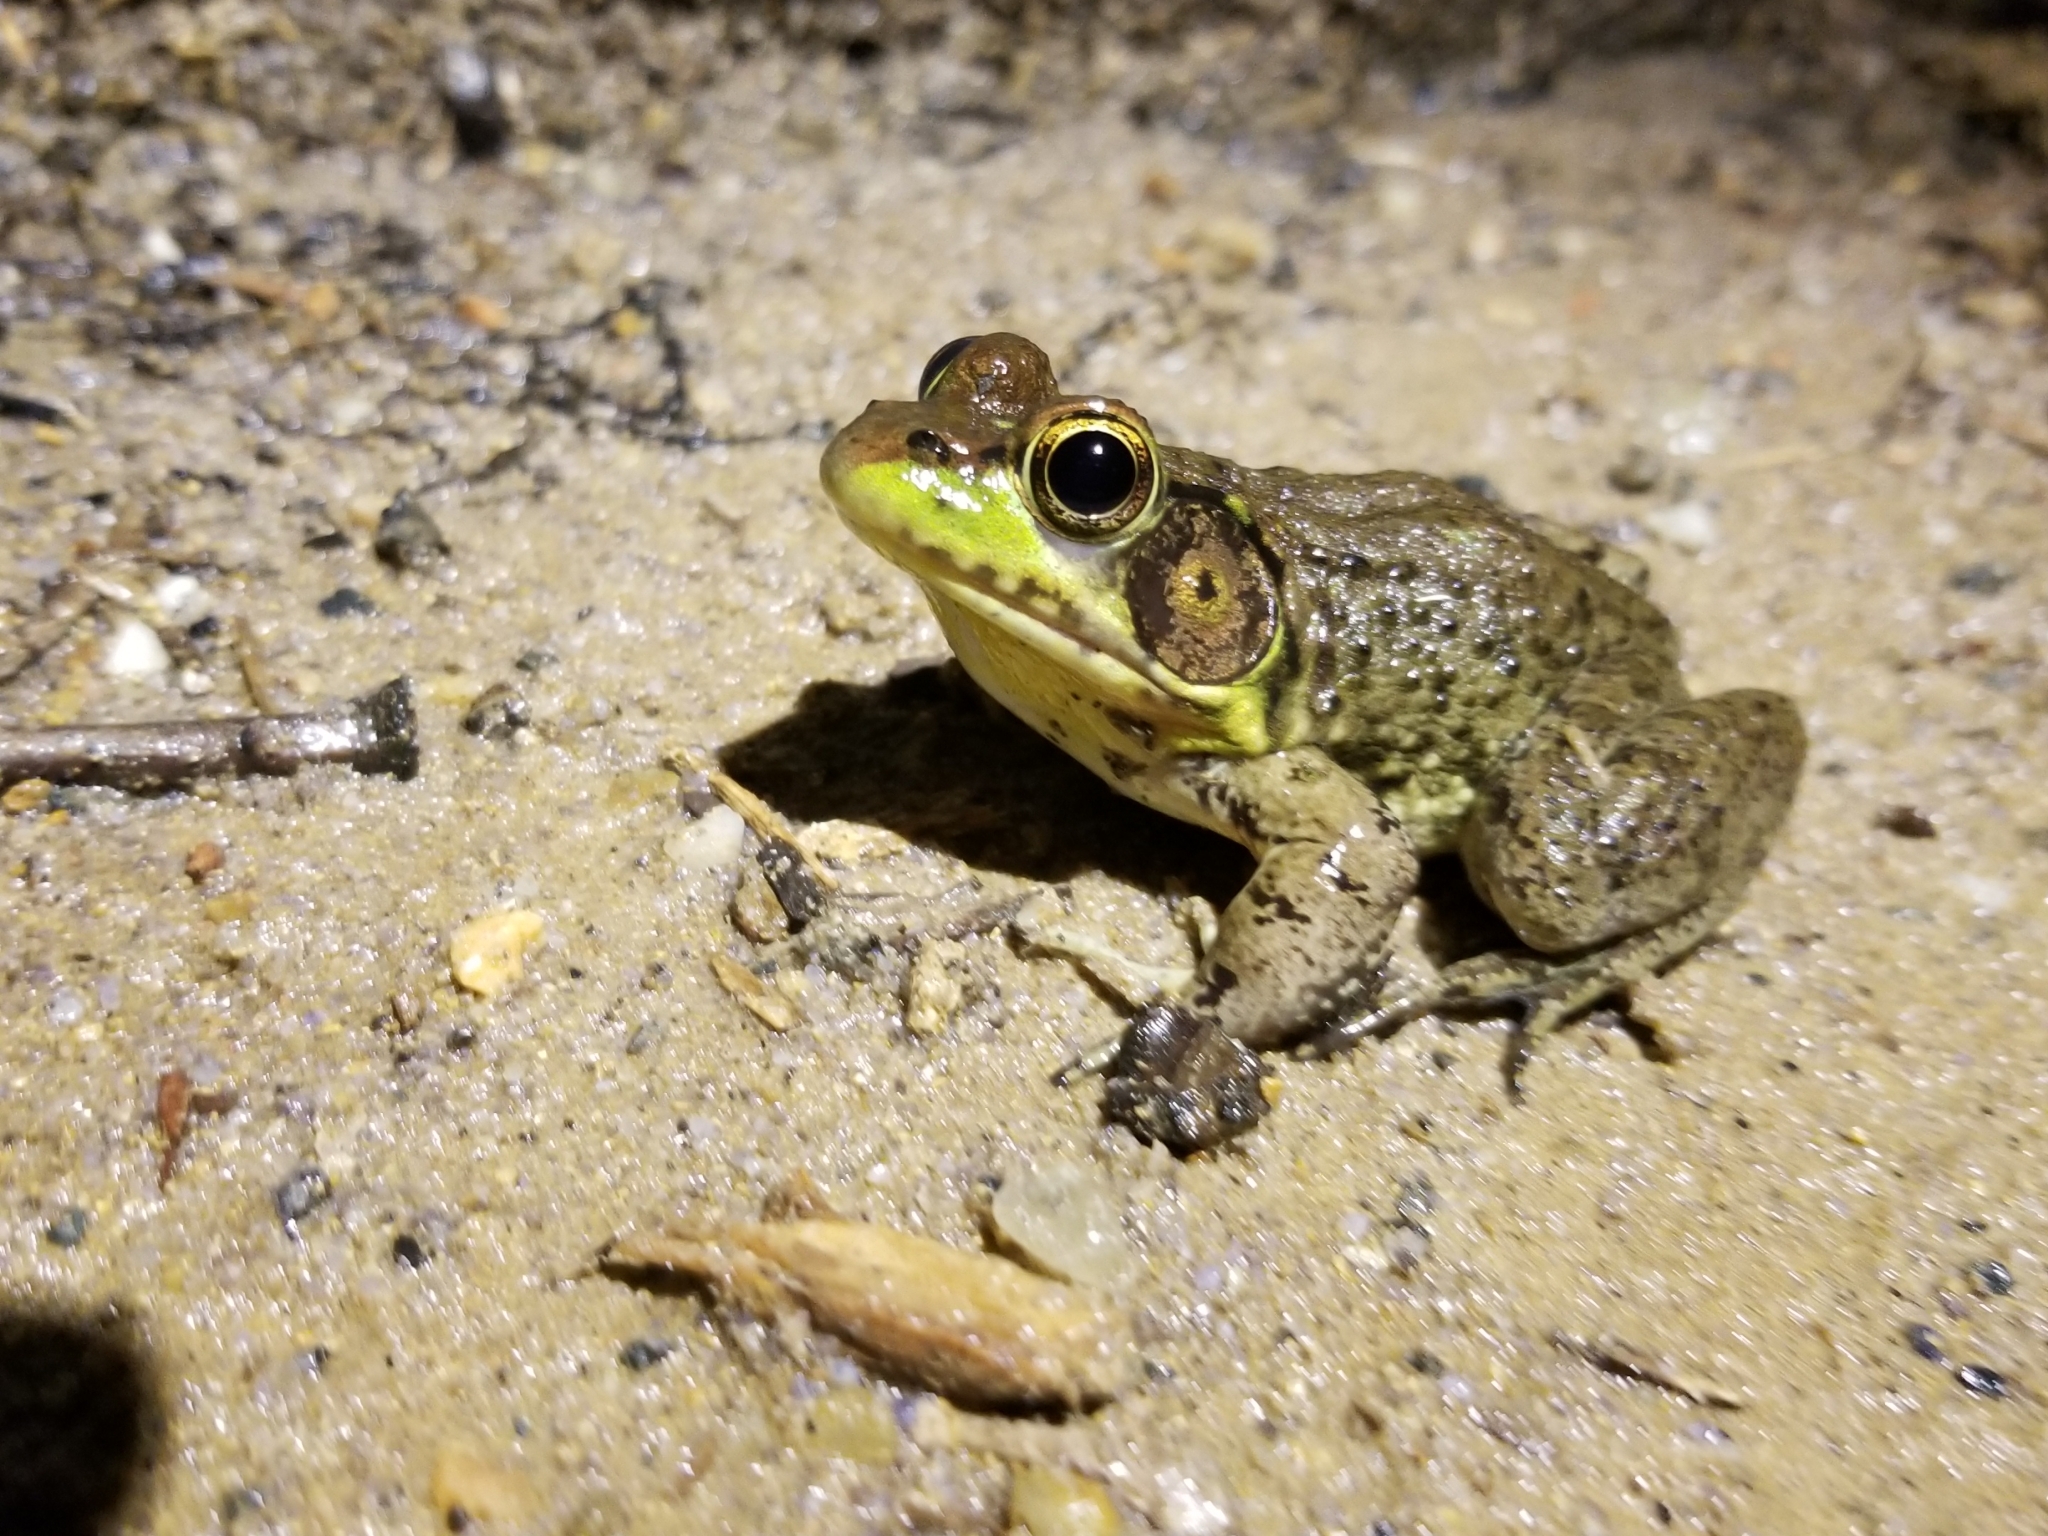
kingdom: Animalia
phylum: Chordata
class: Amphibia
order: Anura
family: Ranidae
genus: Lithobates
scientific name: Lithobates clamitans
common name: Green frog
